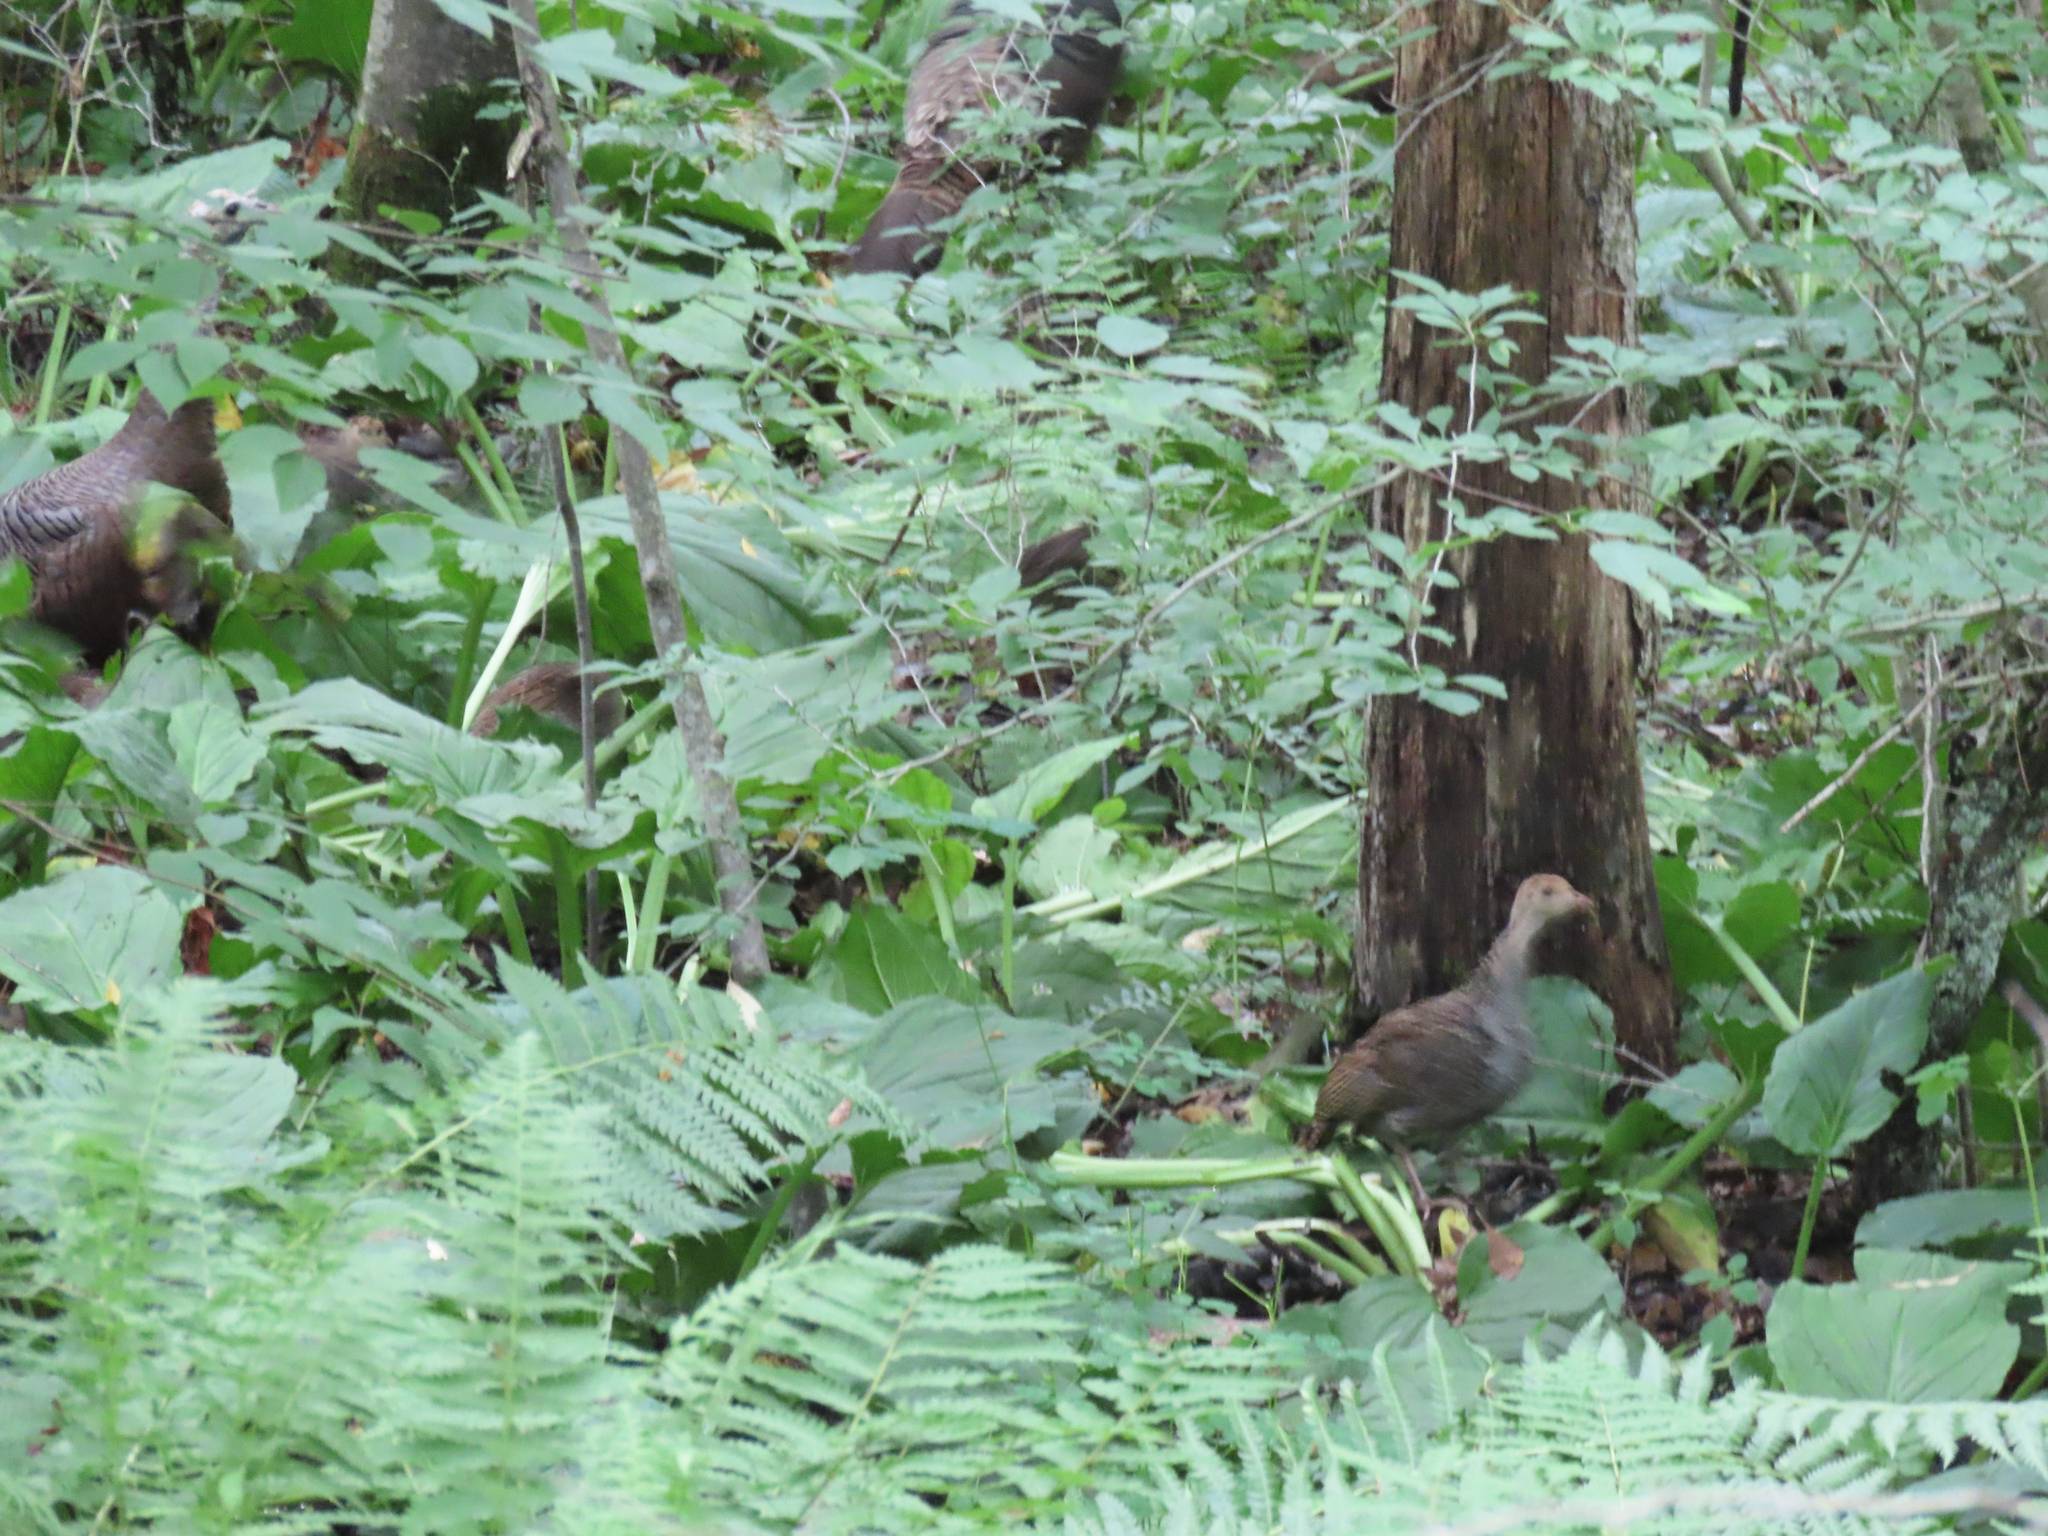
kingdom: Animalia
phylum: Chordata
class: Aves
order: Galliformes
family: Phasianidae
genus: Meleagris
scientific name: Meleagris gallopavo
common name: Wild turkey
